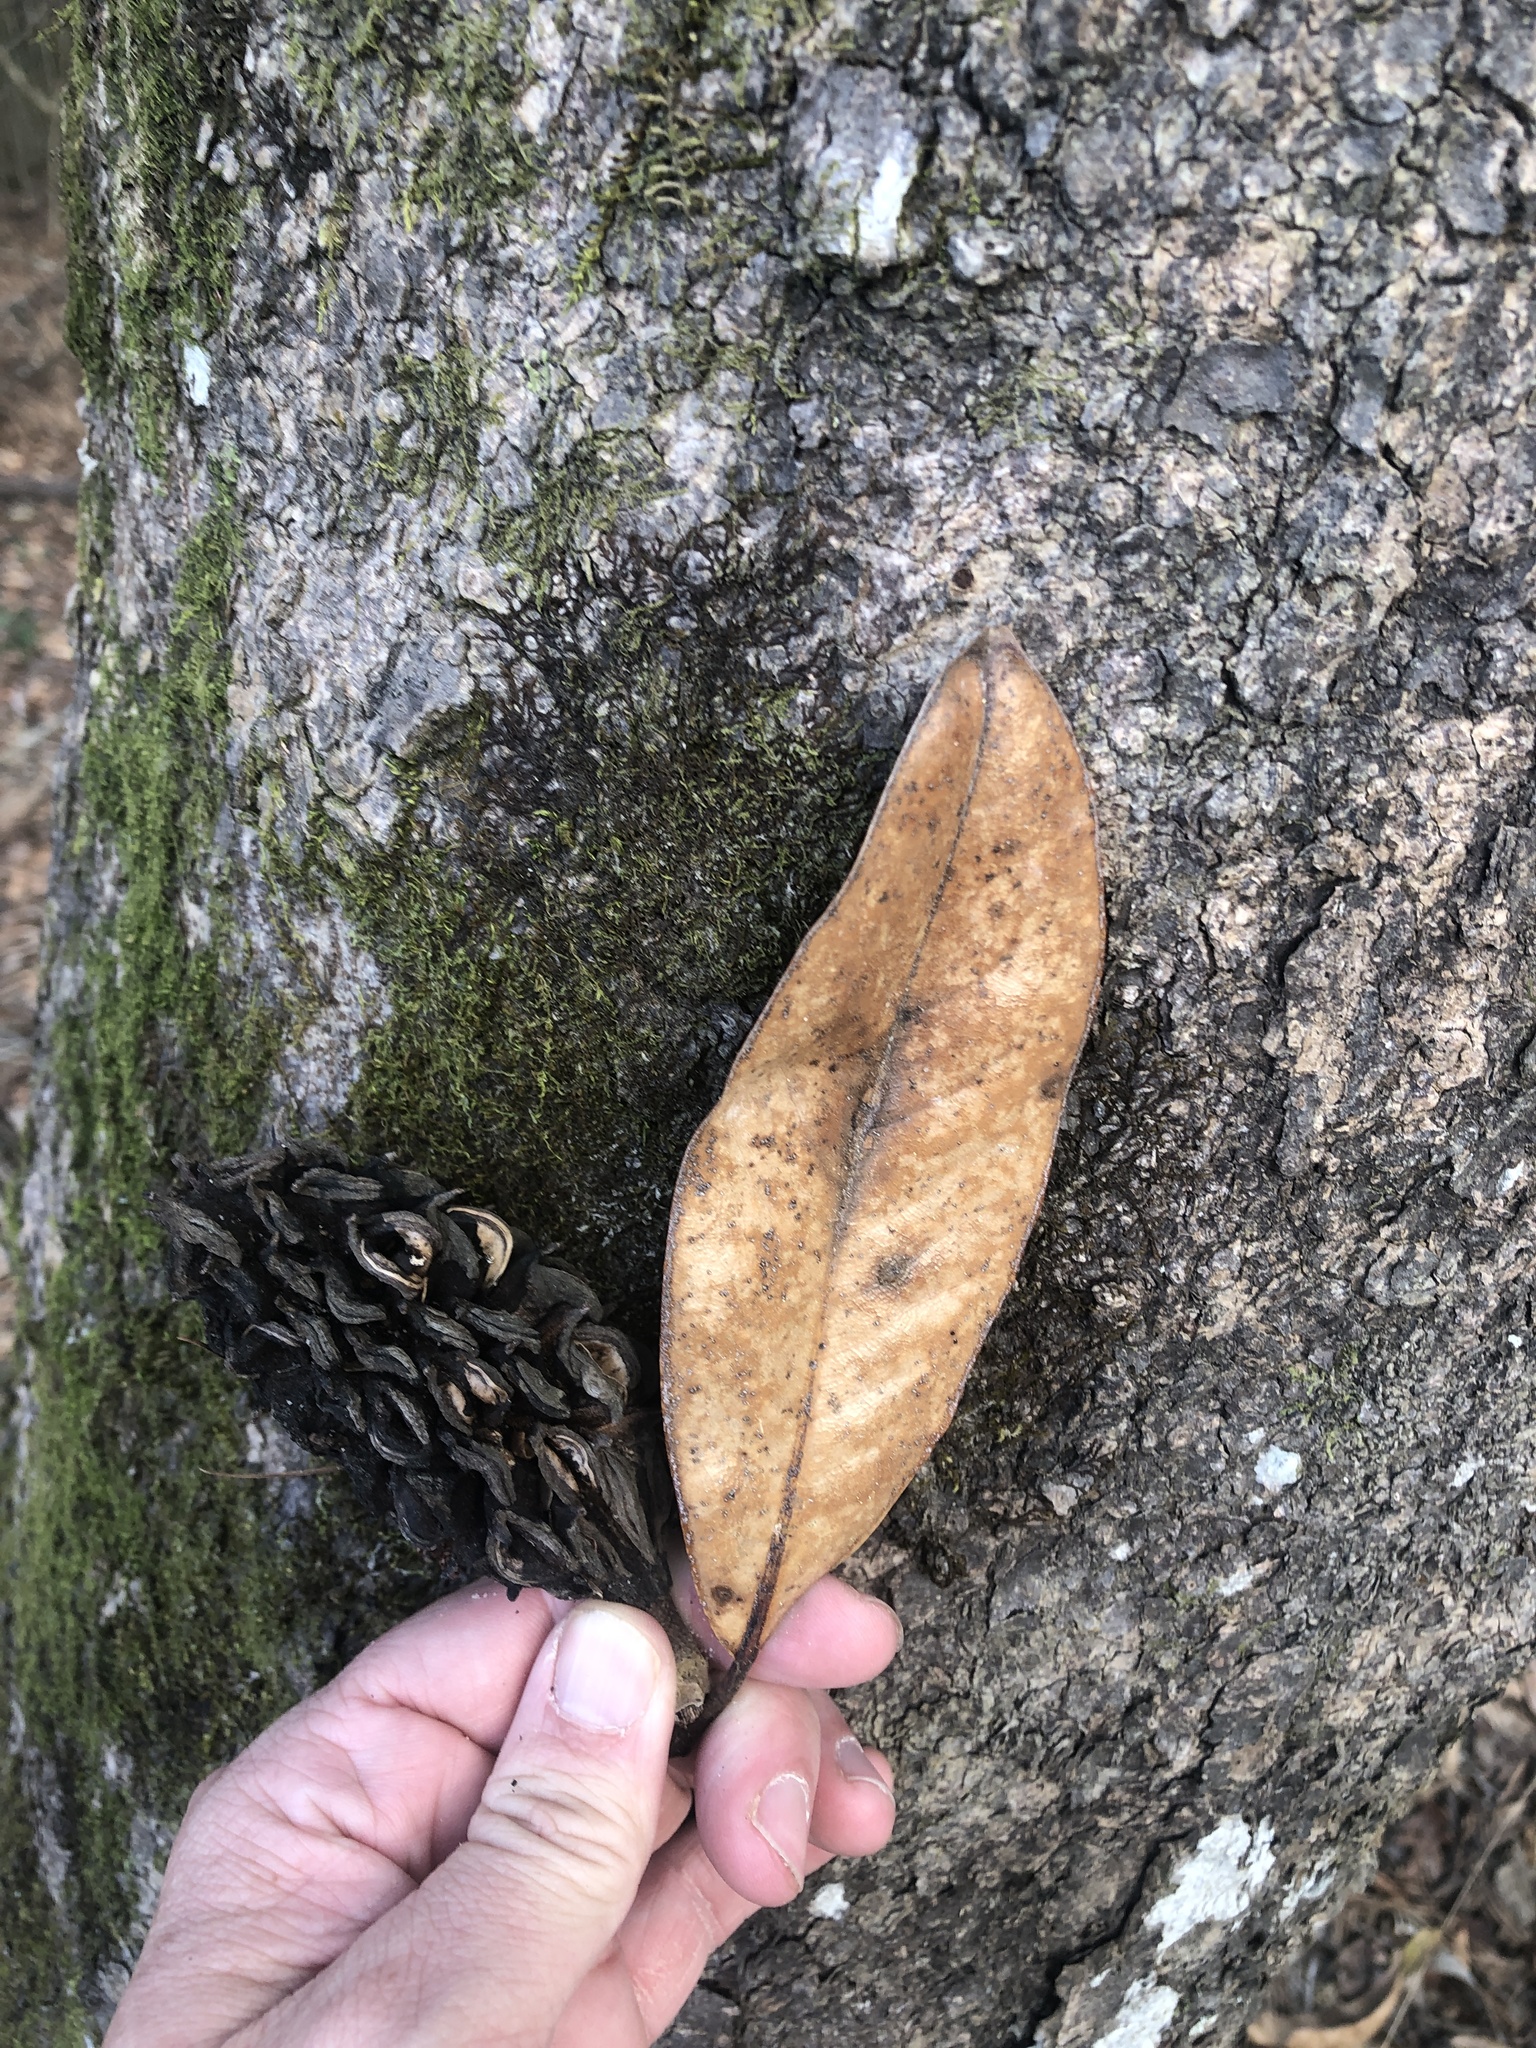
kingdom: Plantae
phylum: Tracheophyta
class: Magnoliopsida
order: Magnoliales
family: Magnoliaceae
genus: Magnolia
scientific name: Magnolia grandiflora
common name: Southern magnolia
